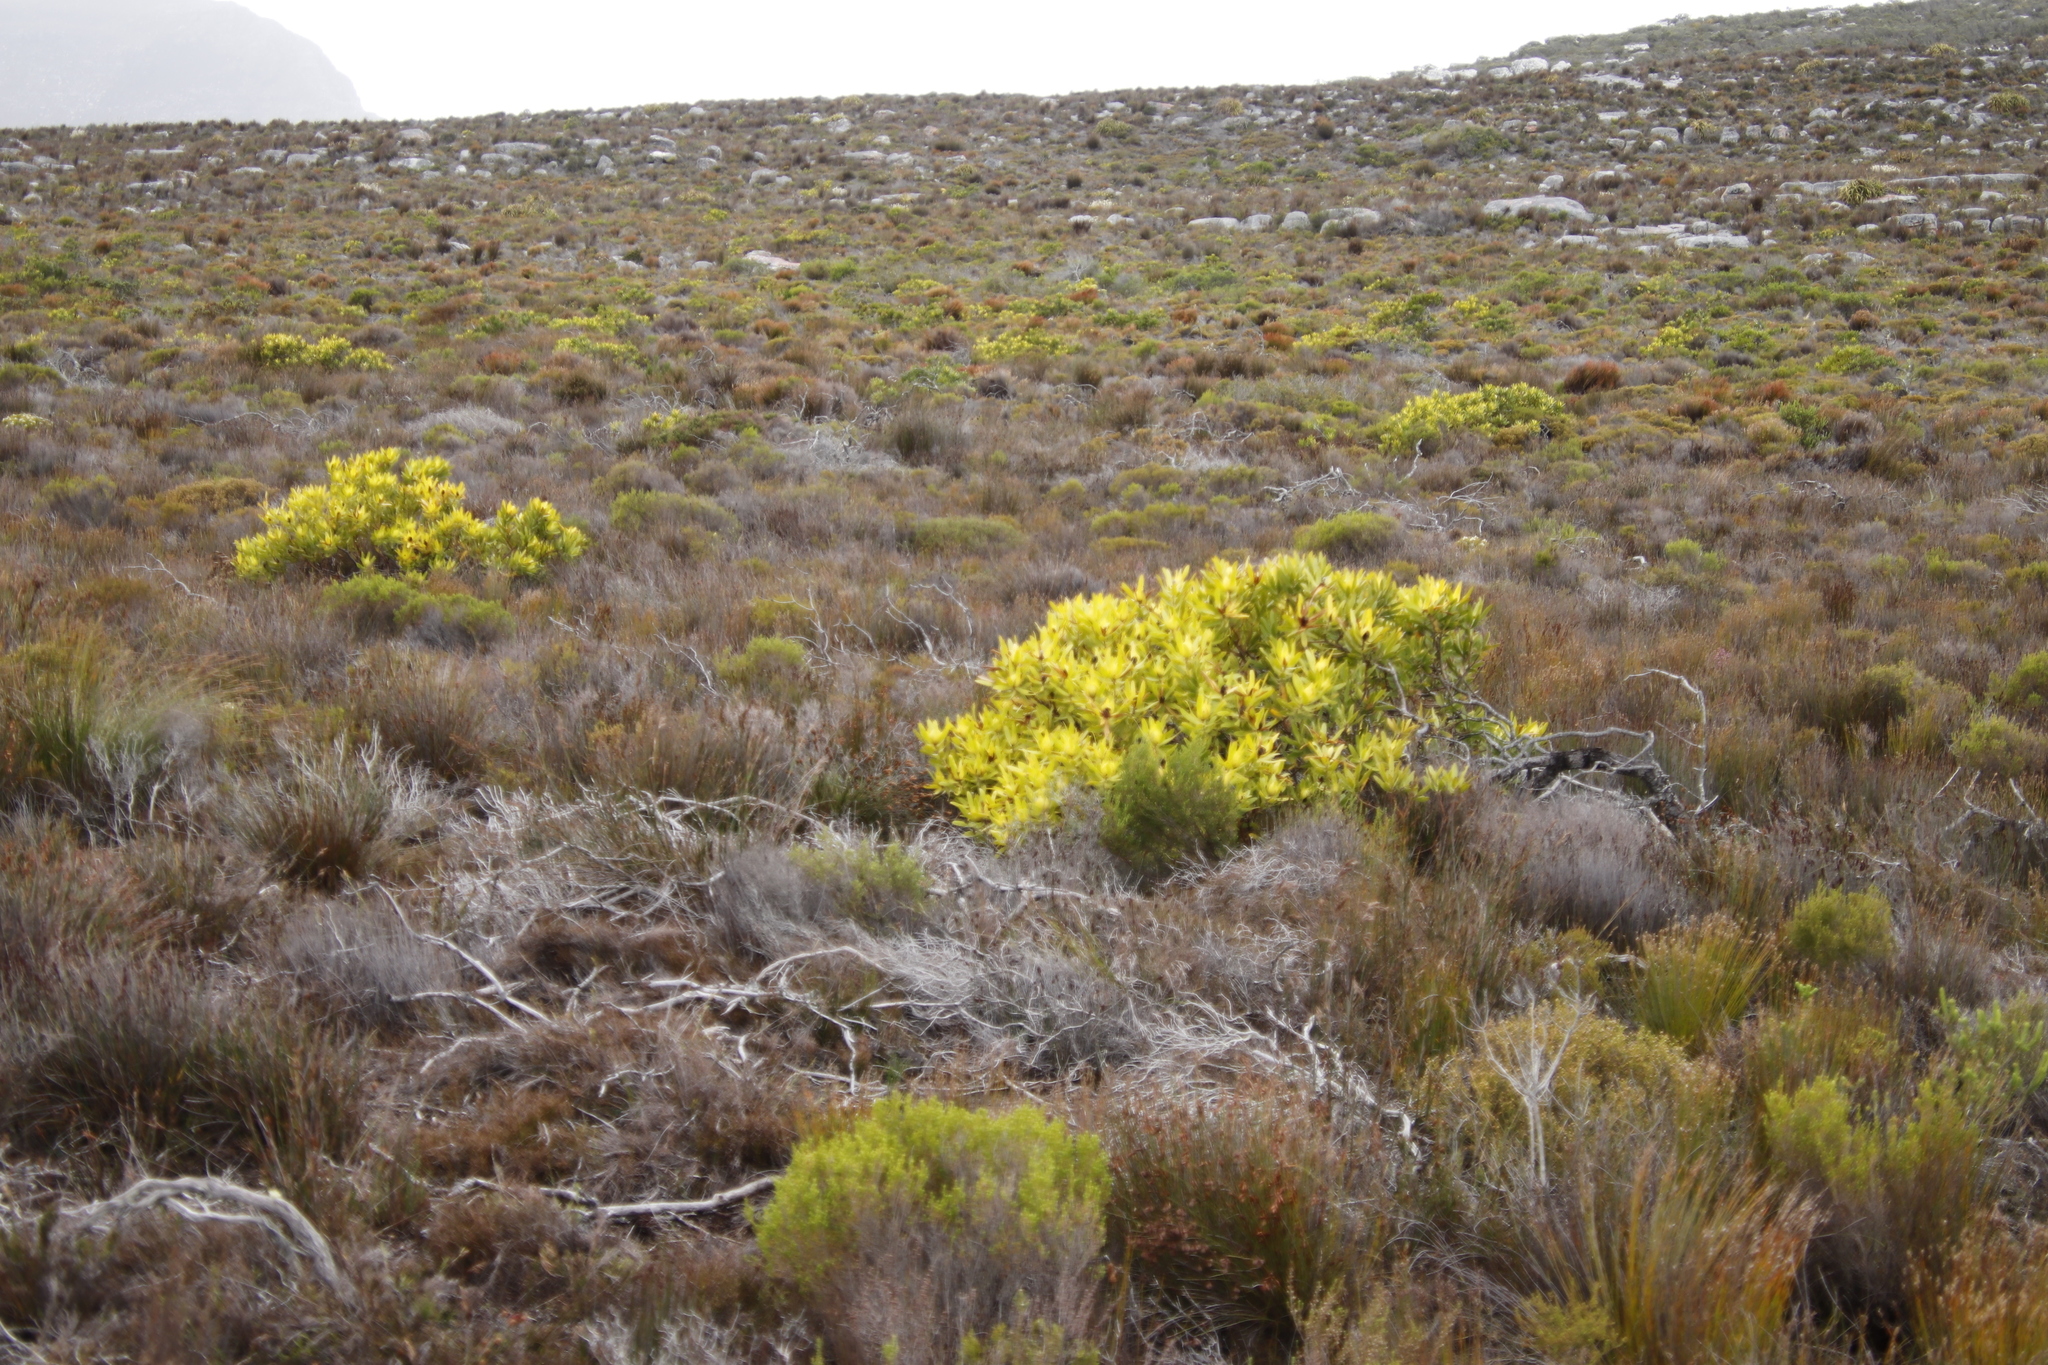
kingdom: Plantae
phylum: Tracheophyta
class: Magnoliopsida
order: Proteales
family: Proteaceae
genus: Leucadendron
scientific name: Leucadendron laureolum
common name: Golden sunshinebush
